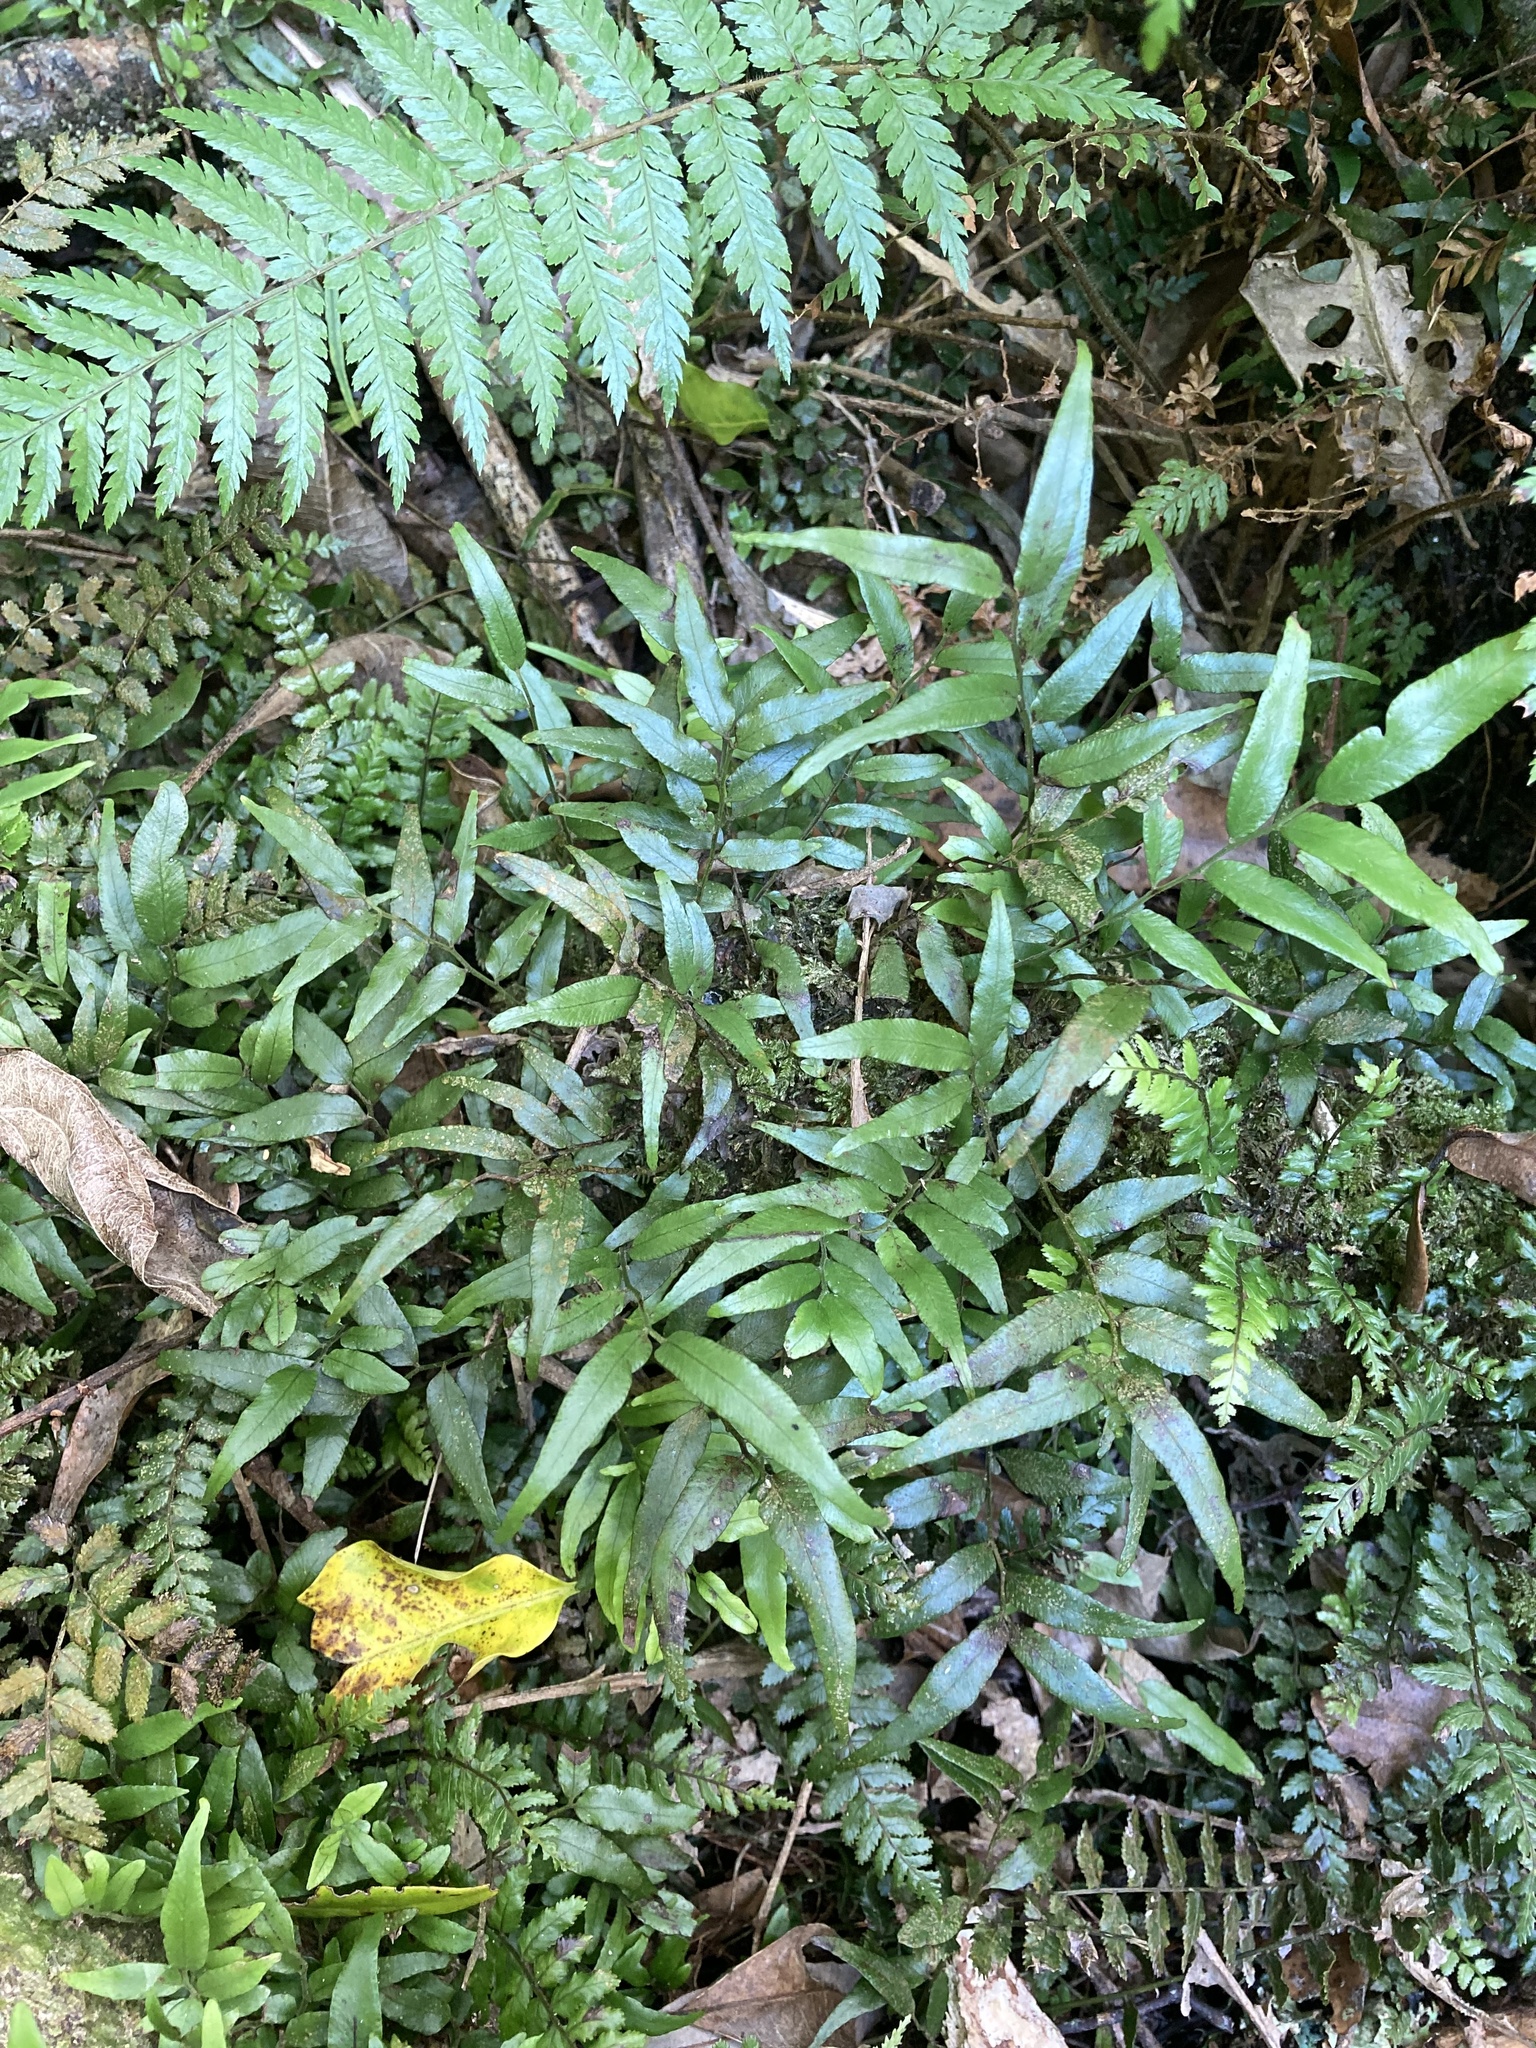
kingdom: Plantae
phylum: Tracheophyta
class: Polypodiopsida
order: Polypodiales
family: Tectariaceae
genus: Arthropteris
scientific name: Arthropteris tenella
